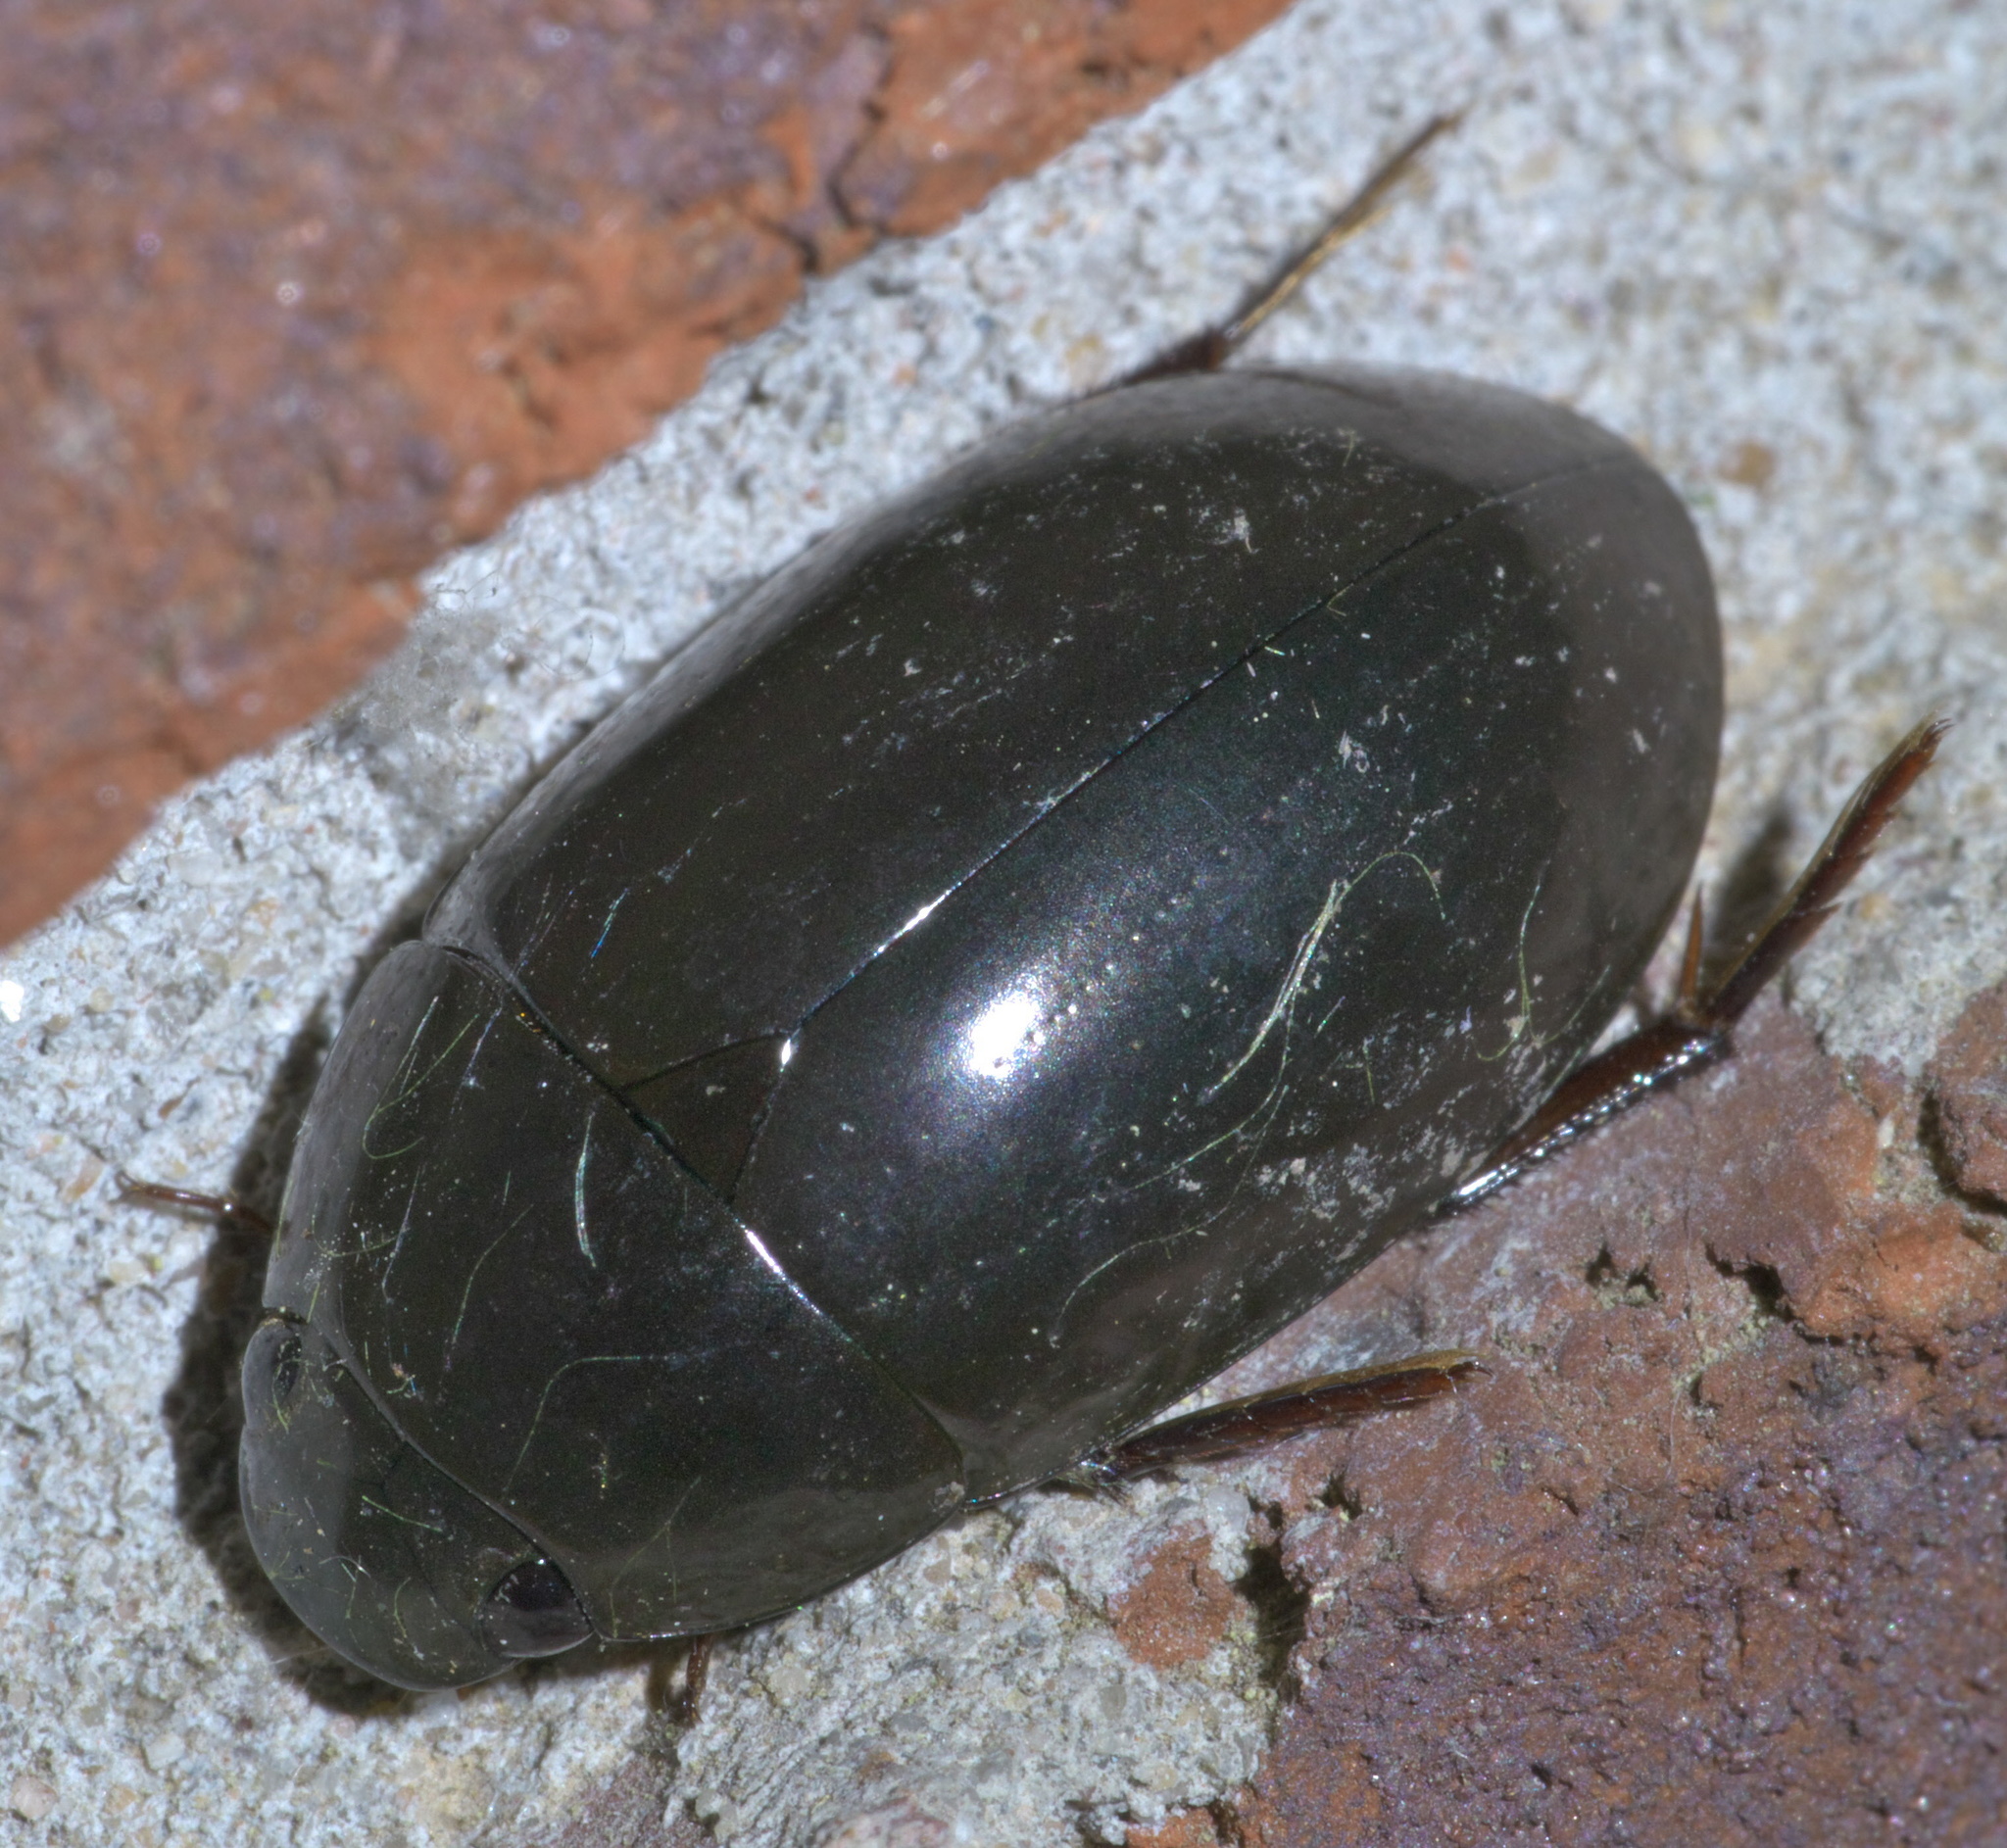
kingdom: Animalia
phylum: Arthropoda
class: Insecta
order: Coleoptera
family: Hydrophilidae
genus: Hydrochara
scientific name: Hydrochara
